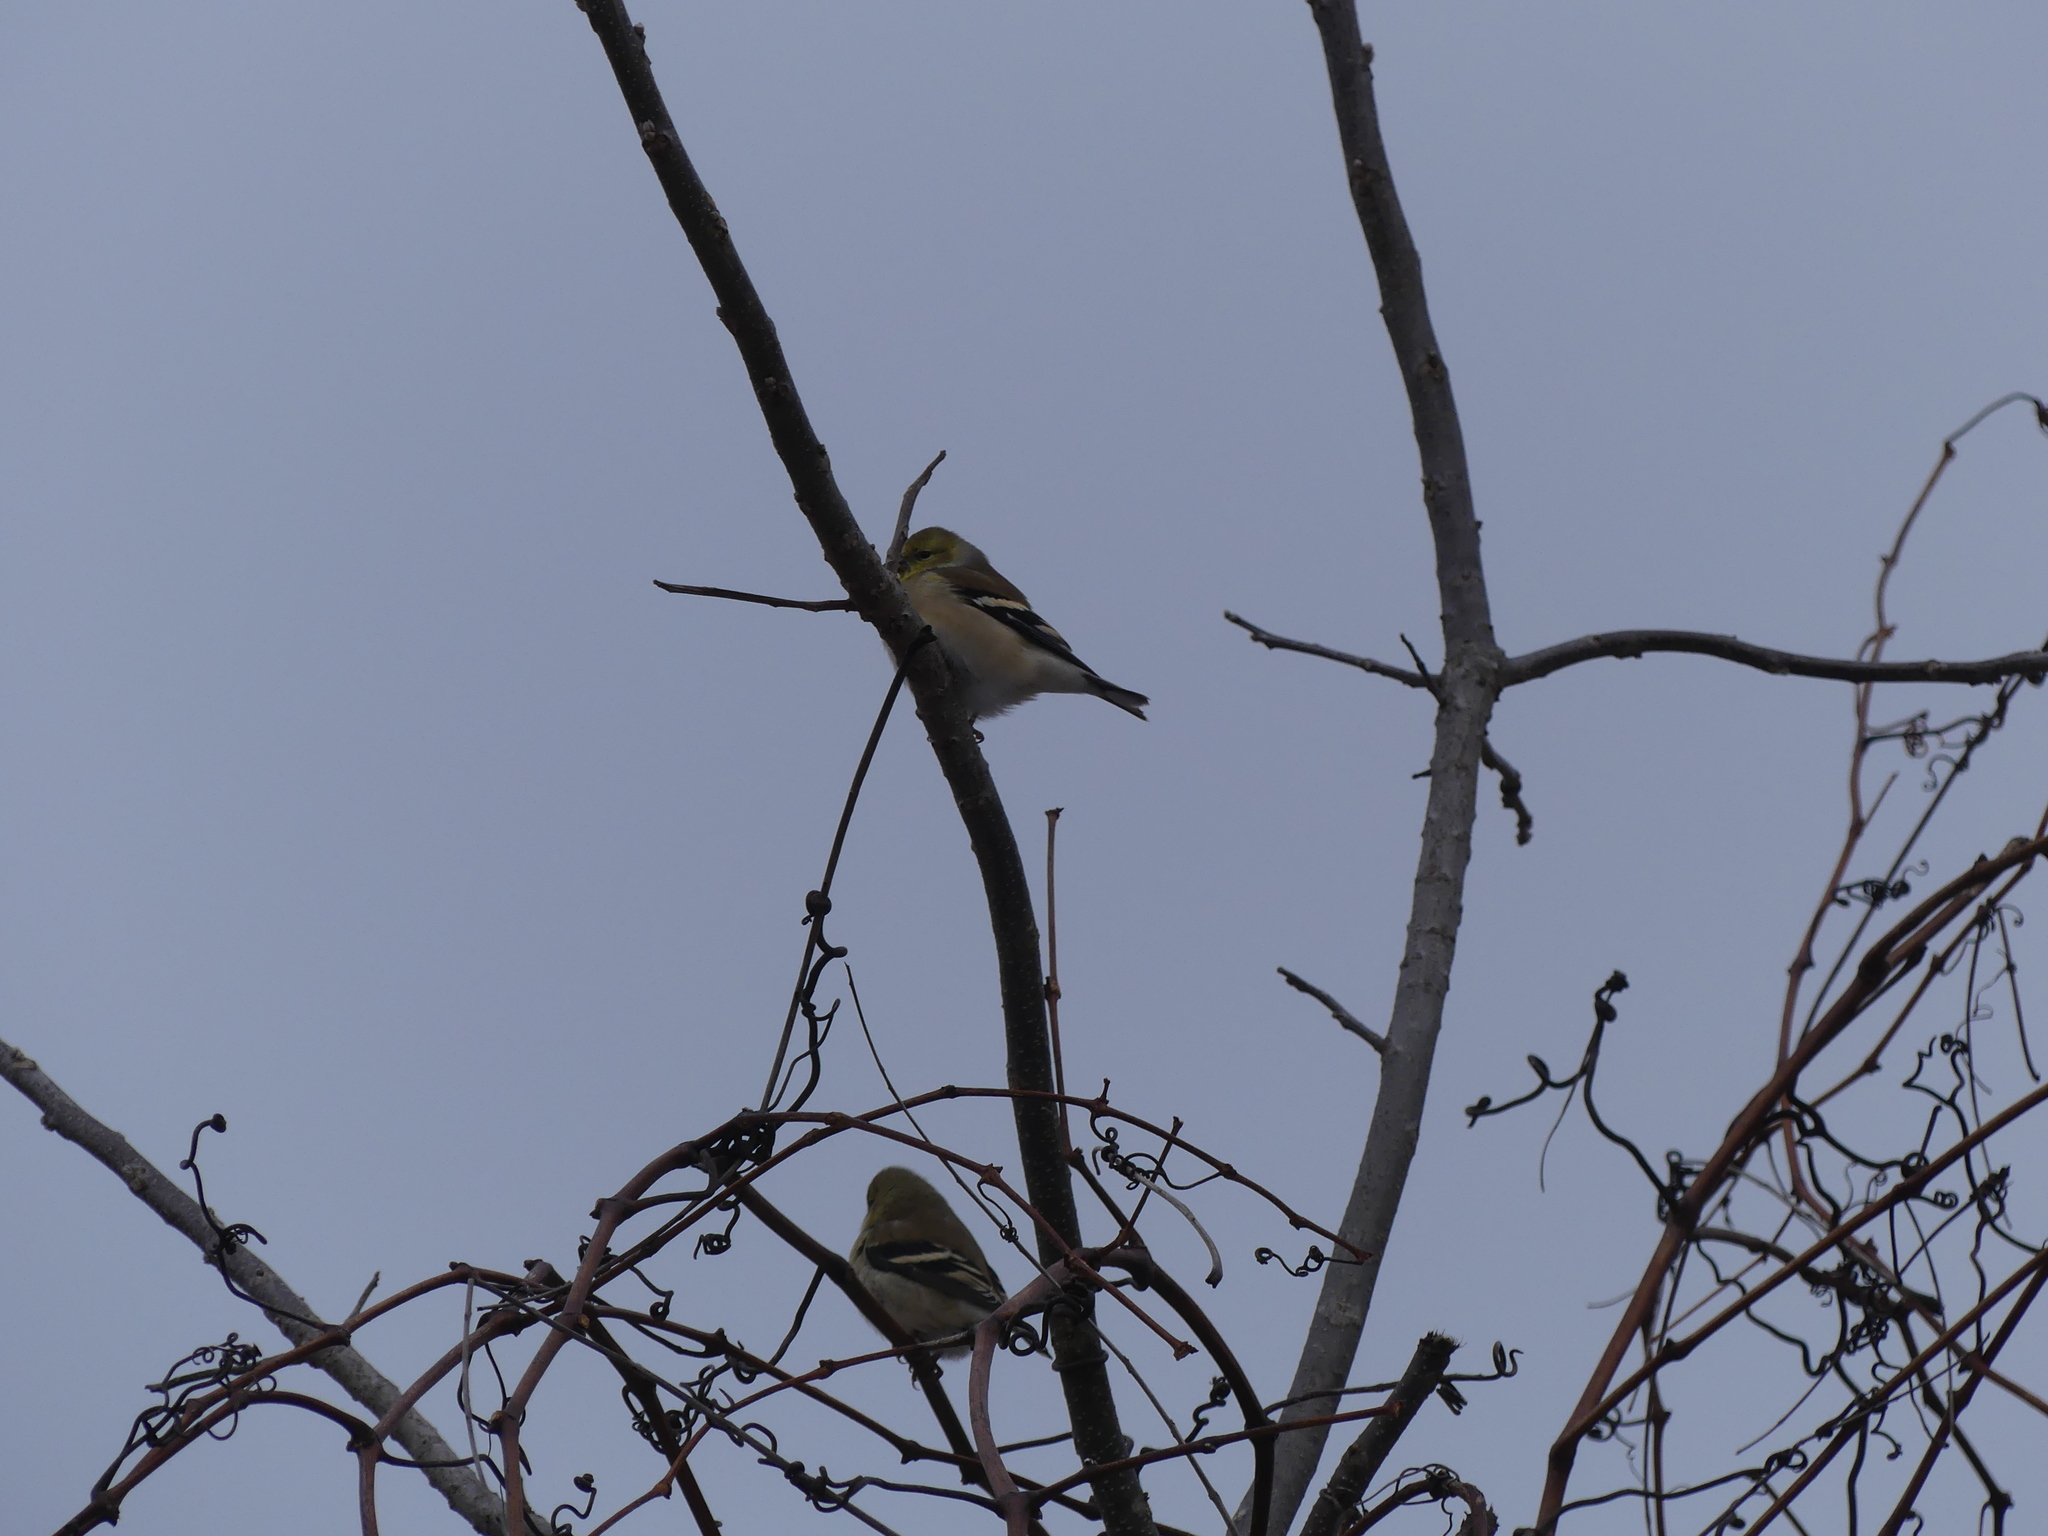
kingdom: Animalia
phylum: Chordata
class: Aves
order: Passeriformes
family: Fringillidae
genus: Spinus
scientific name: Spinus tristis
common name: American goldfinch
